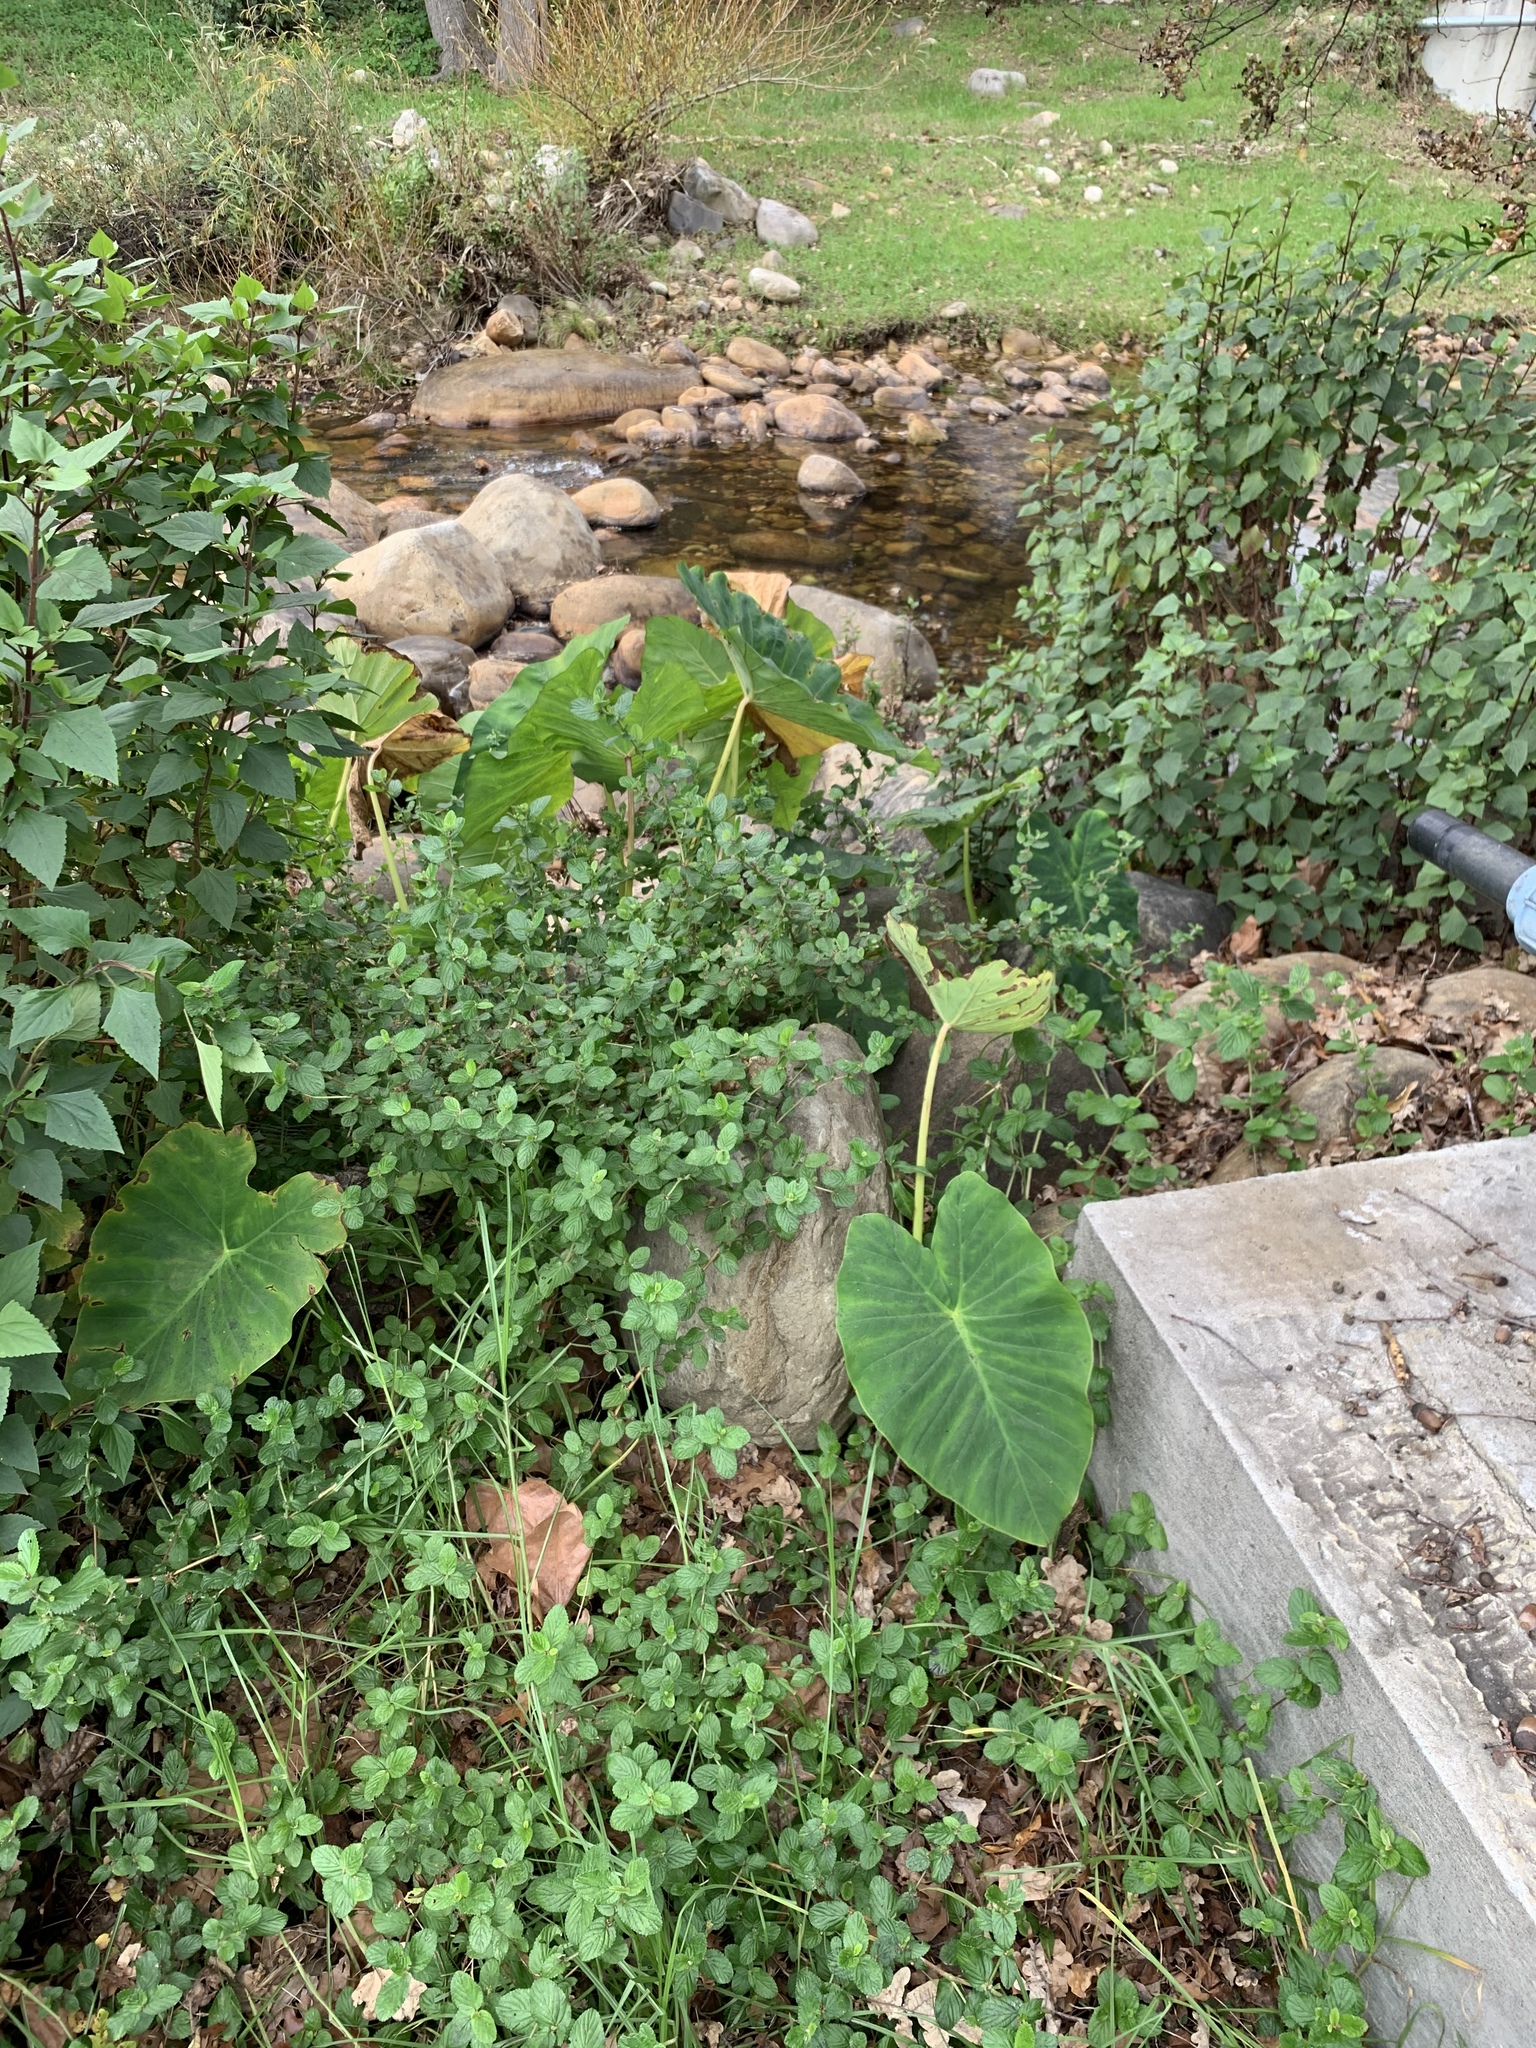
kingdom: Plantae
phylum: Tracheophyta
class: Liliopsida
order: Alismatales
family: Araceae
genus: Colocasia
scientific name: Colocasia esculenta
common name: Taro
